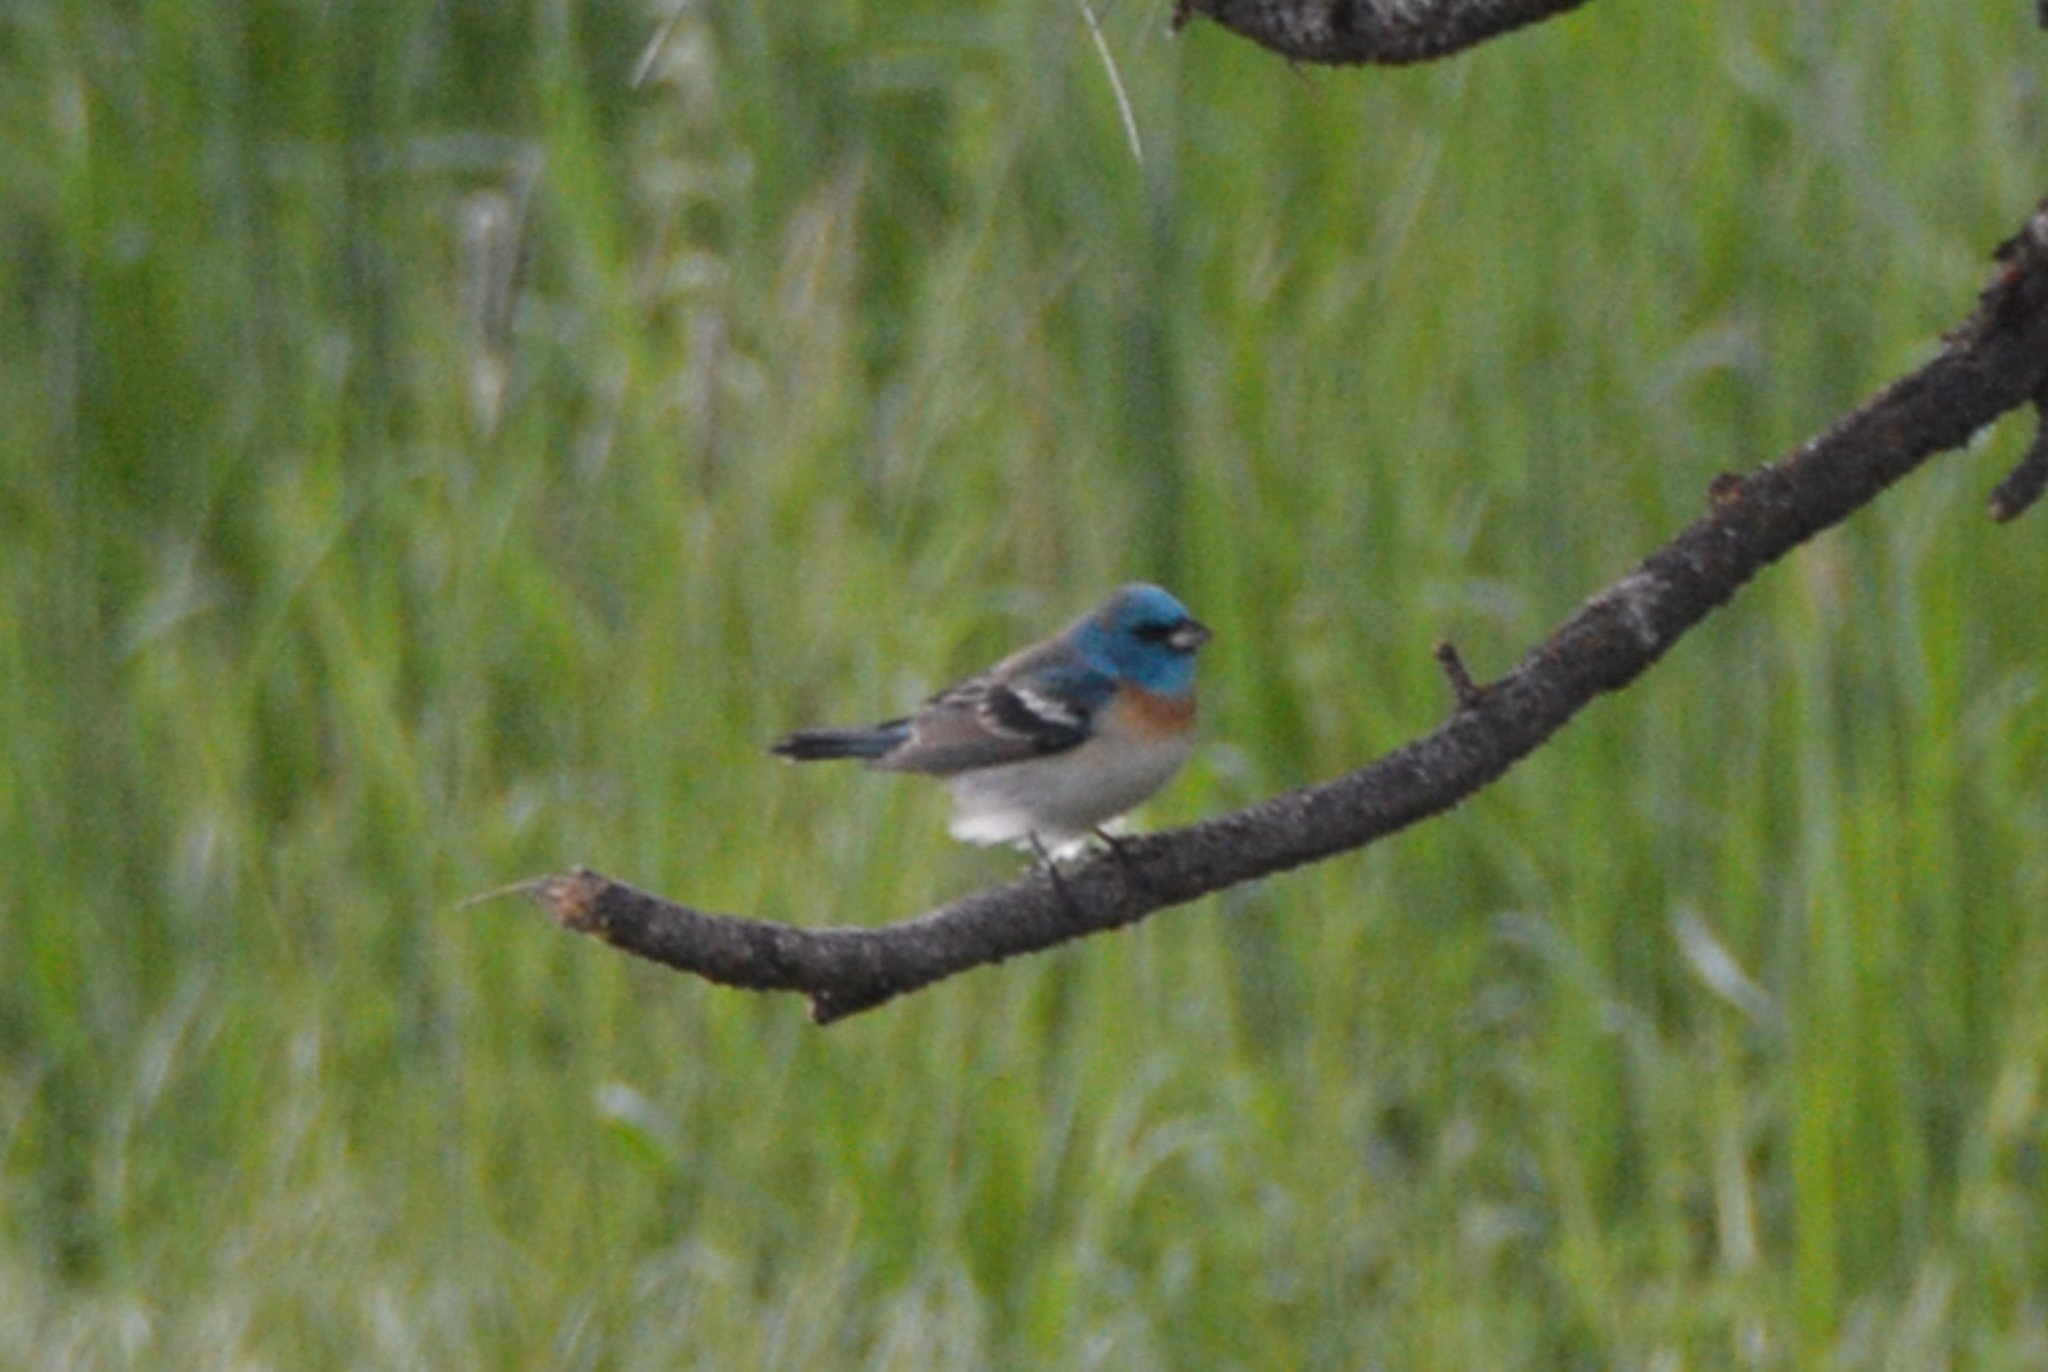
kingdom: Animalia
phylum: Chordata
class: Aves
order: Passeriformes
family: Cardinalidae
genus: Passerina
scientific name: Passerina amoena
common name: Lazuli bunting
